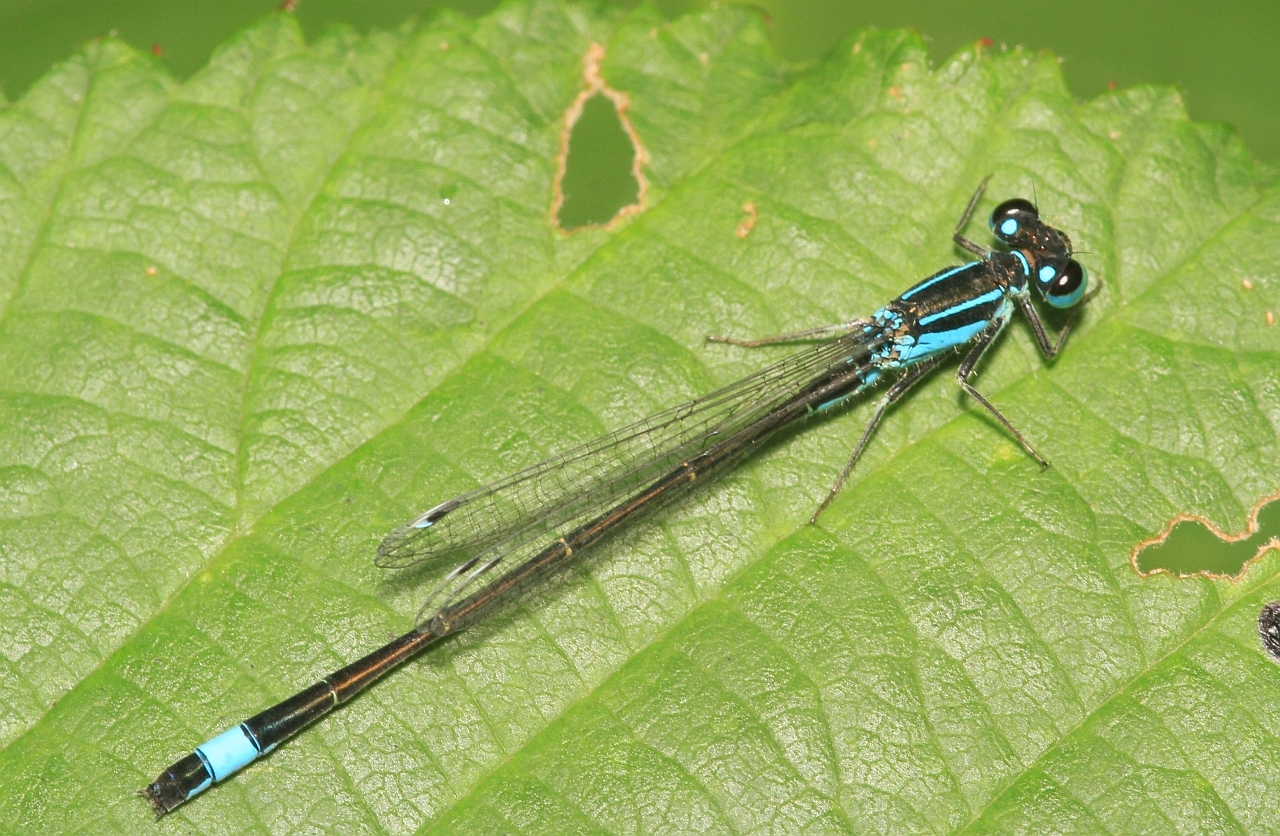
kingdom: Animalia
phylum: Arthropoda
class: Insecta
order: Odonata
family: Coenagrionidae
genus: Ischnura
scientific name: Ischnura elegans
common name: Blue-tailed damselfly
